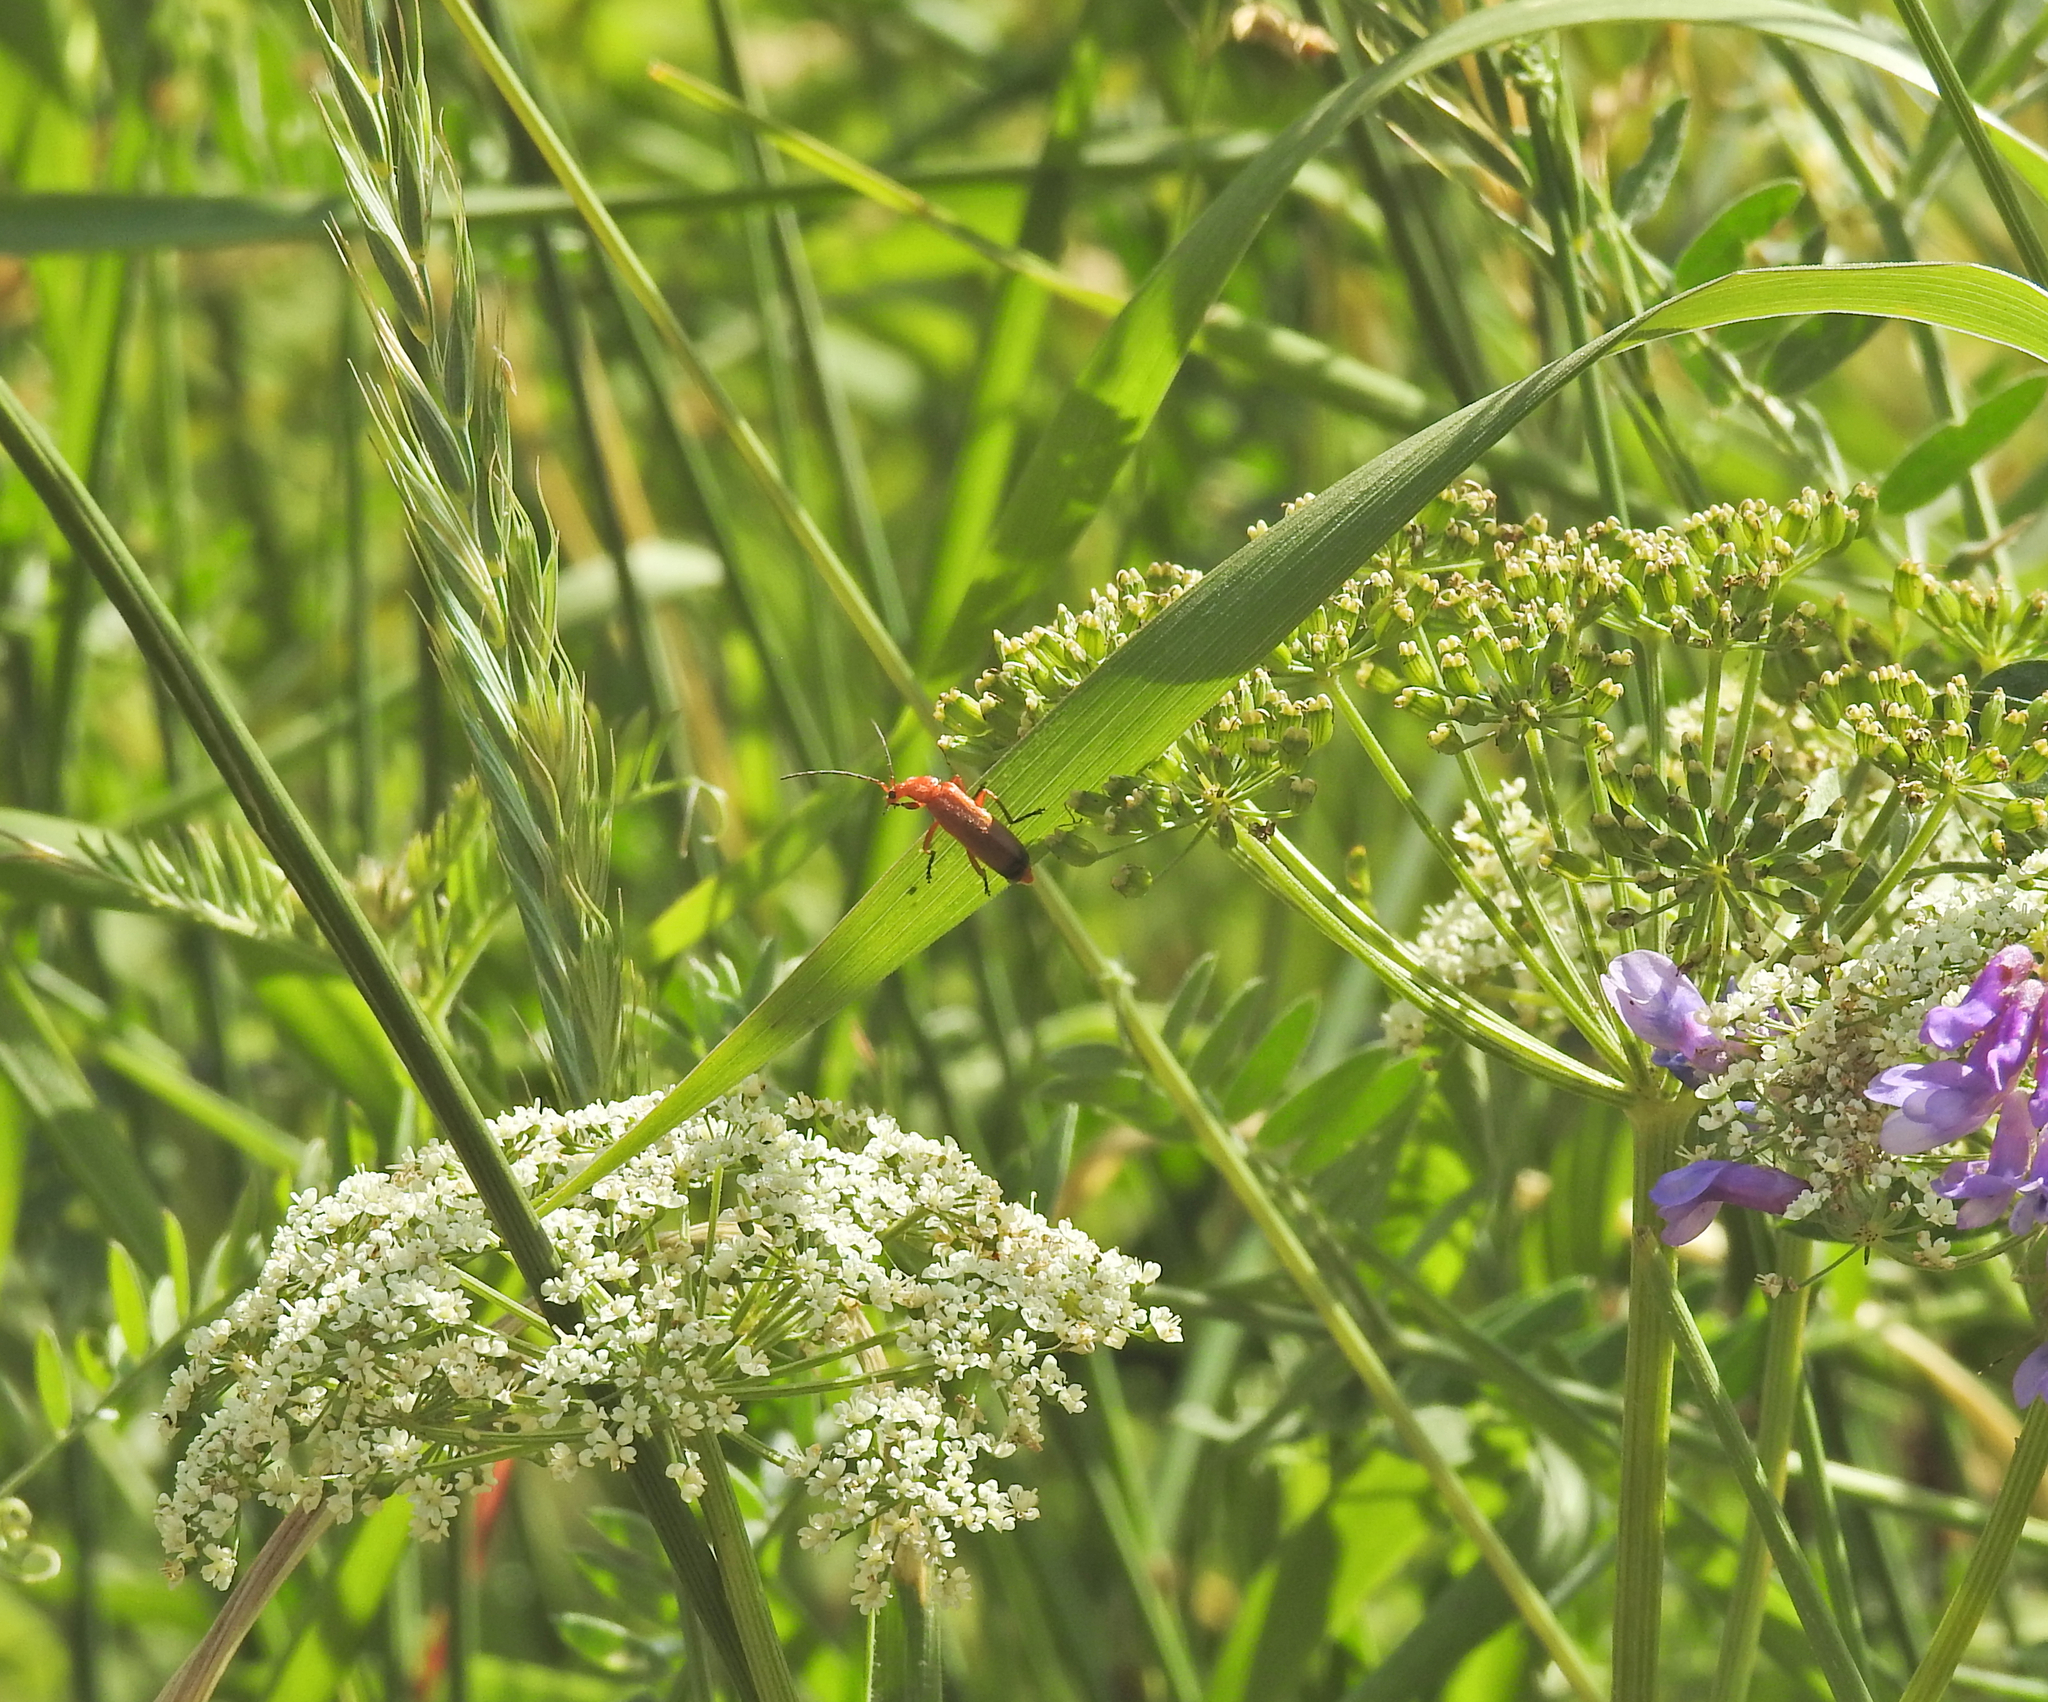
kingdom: Animalia
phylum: Arthropoda
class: Insecta
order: Coleoptera
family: Cantharidae
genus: Rhagonycha
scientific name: Rhagonycha fulva
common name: Common red soldier beetle
